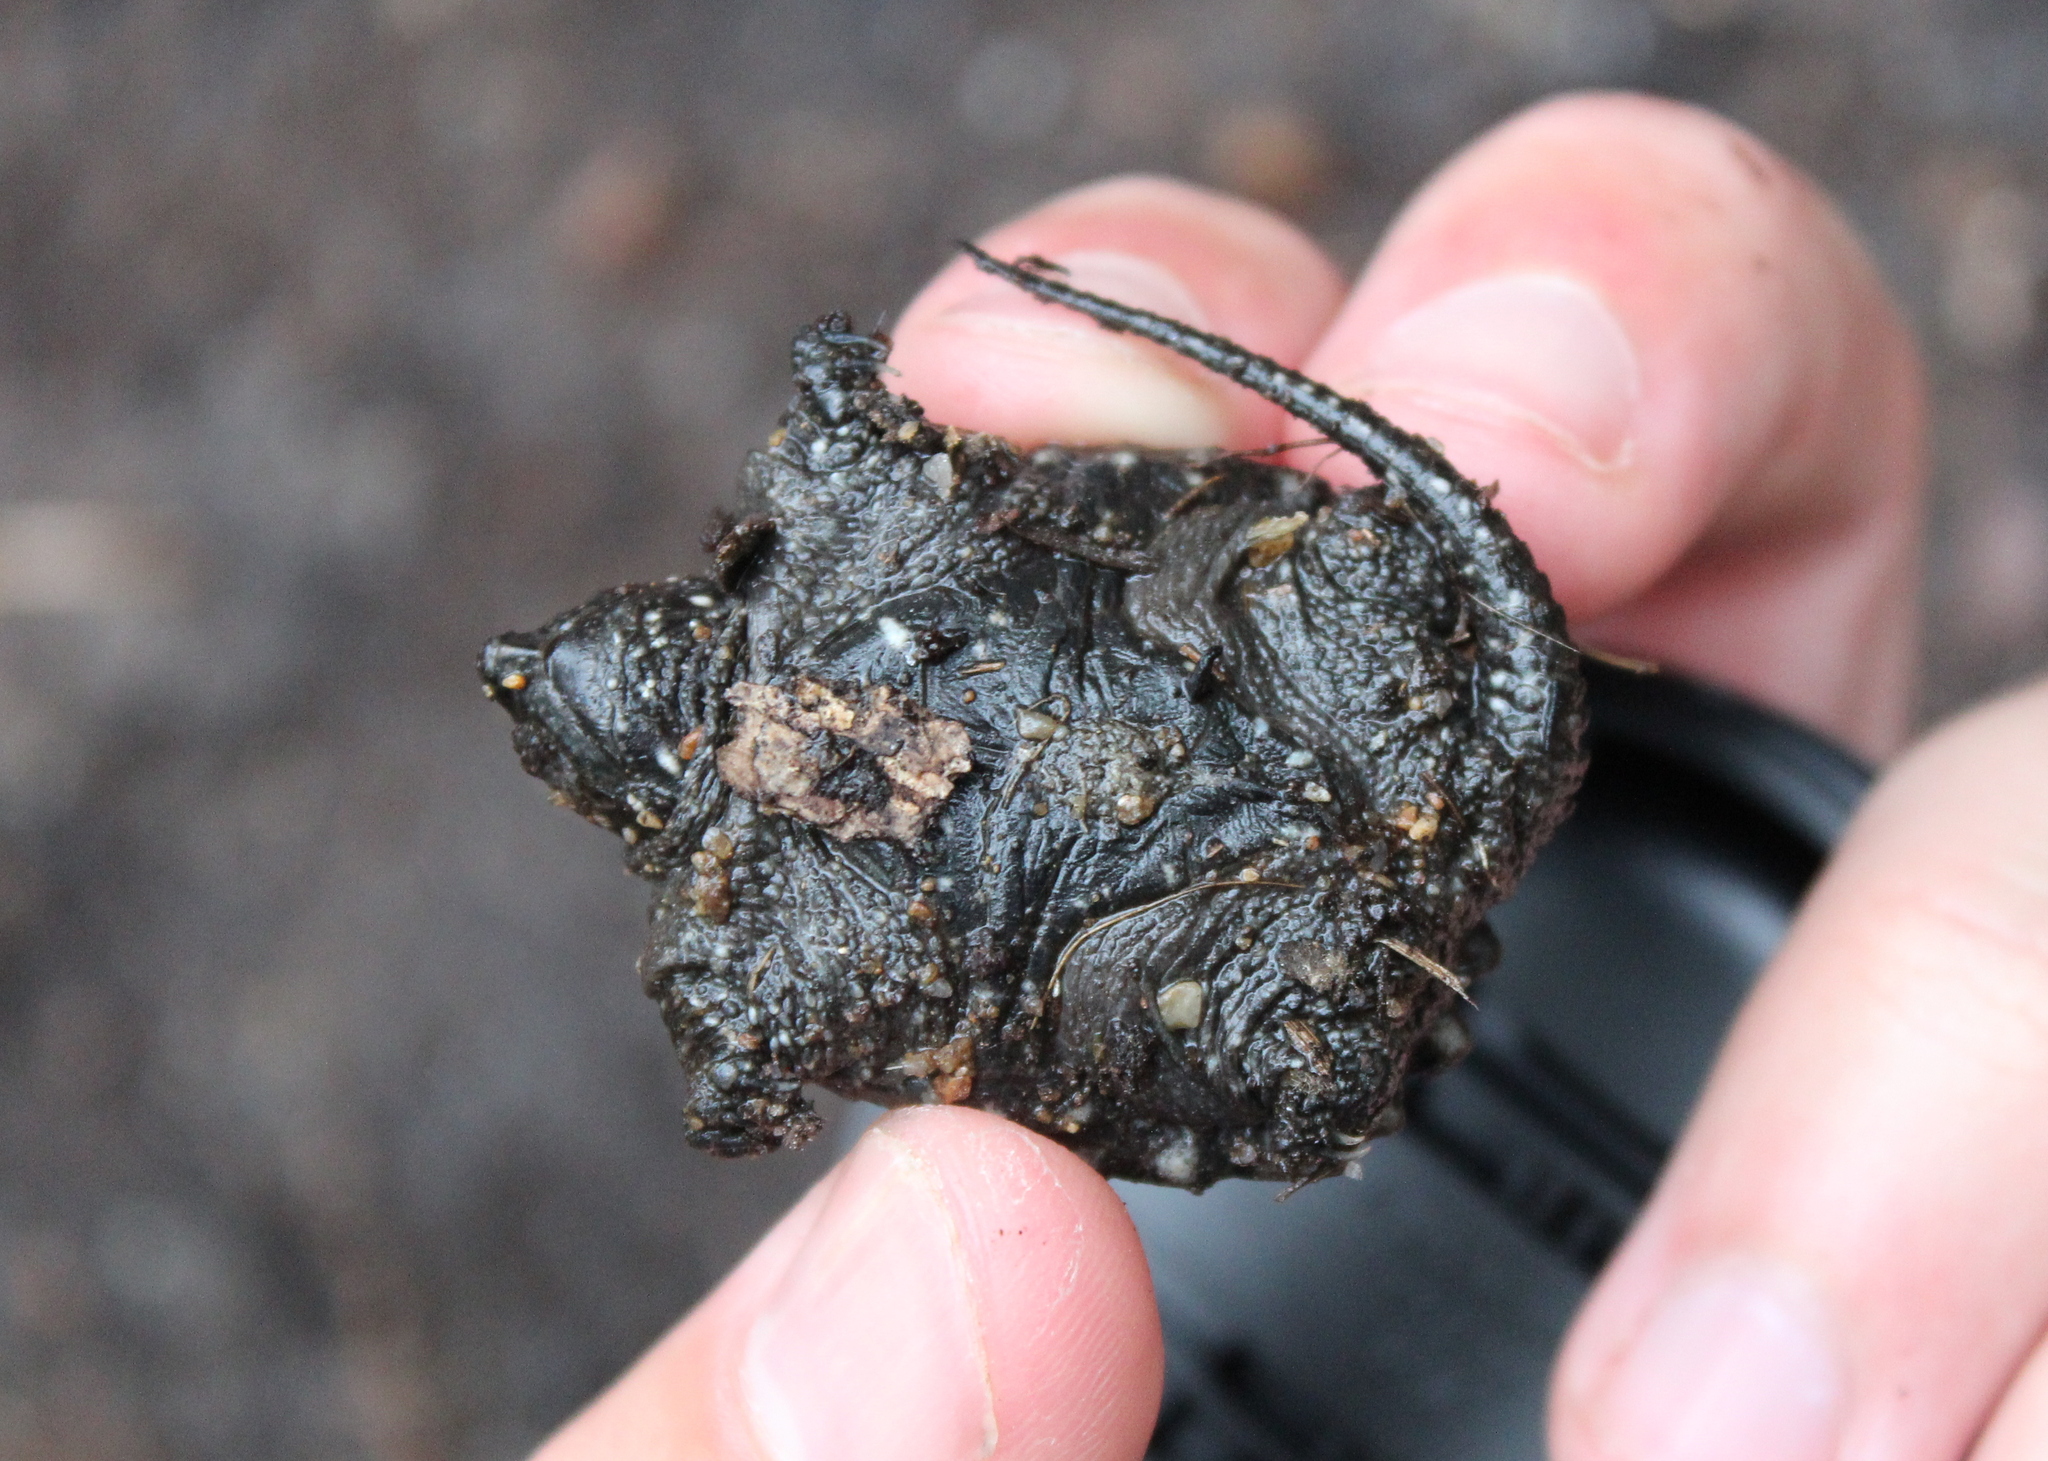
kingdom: Animalia
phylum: Chordata
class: Testudines
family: Chelydridae
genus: Chelydra
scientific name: Chelydra serpentina
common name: Common snapping turtle
